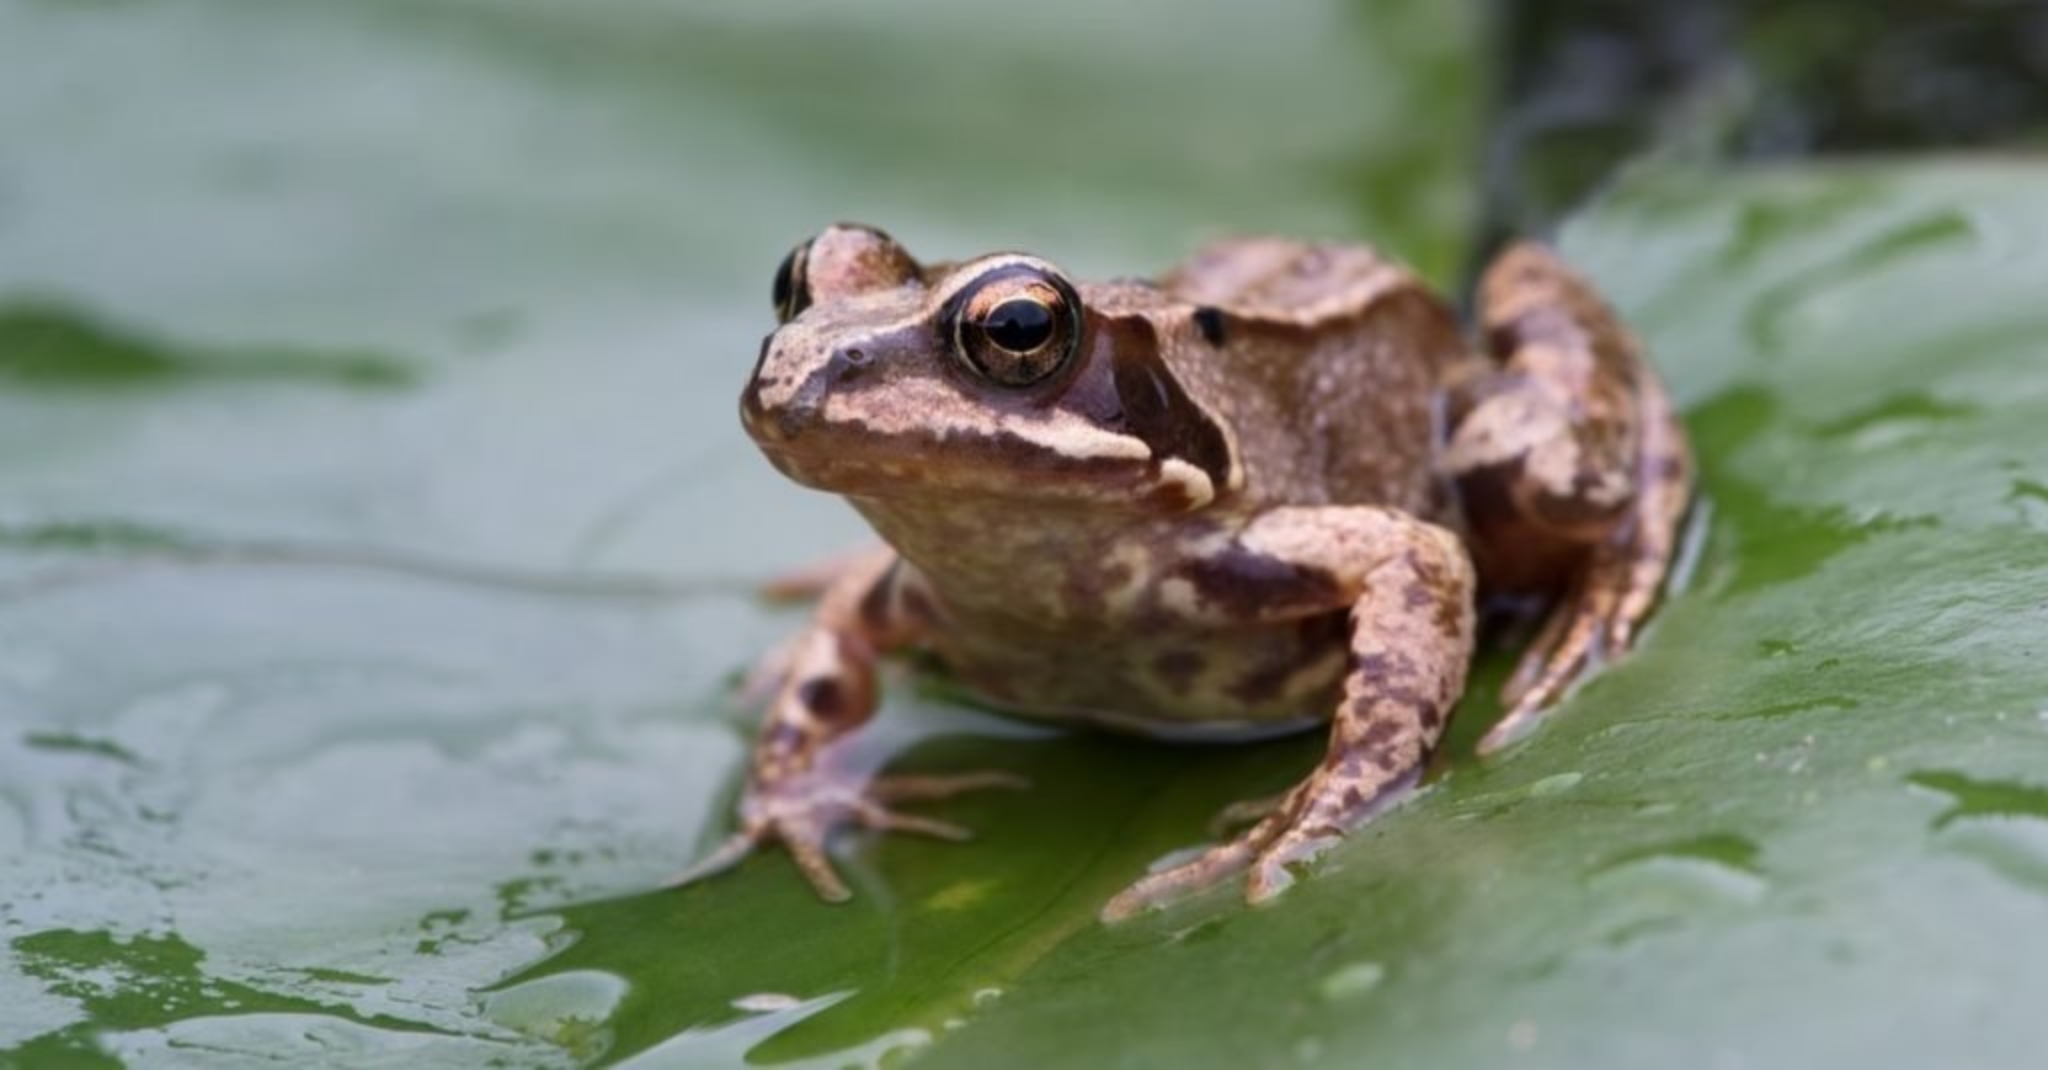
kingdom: Animalia
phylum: Chordata
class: Amphibia
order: Anura
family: Ranidae
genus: Rana
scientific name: Rana temporaria
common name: Common frog
